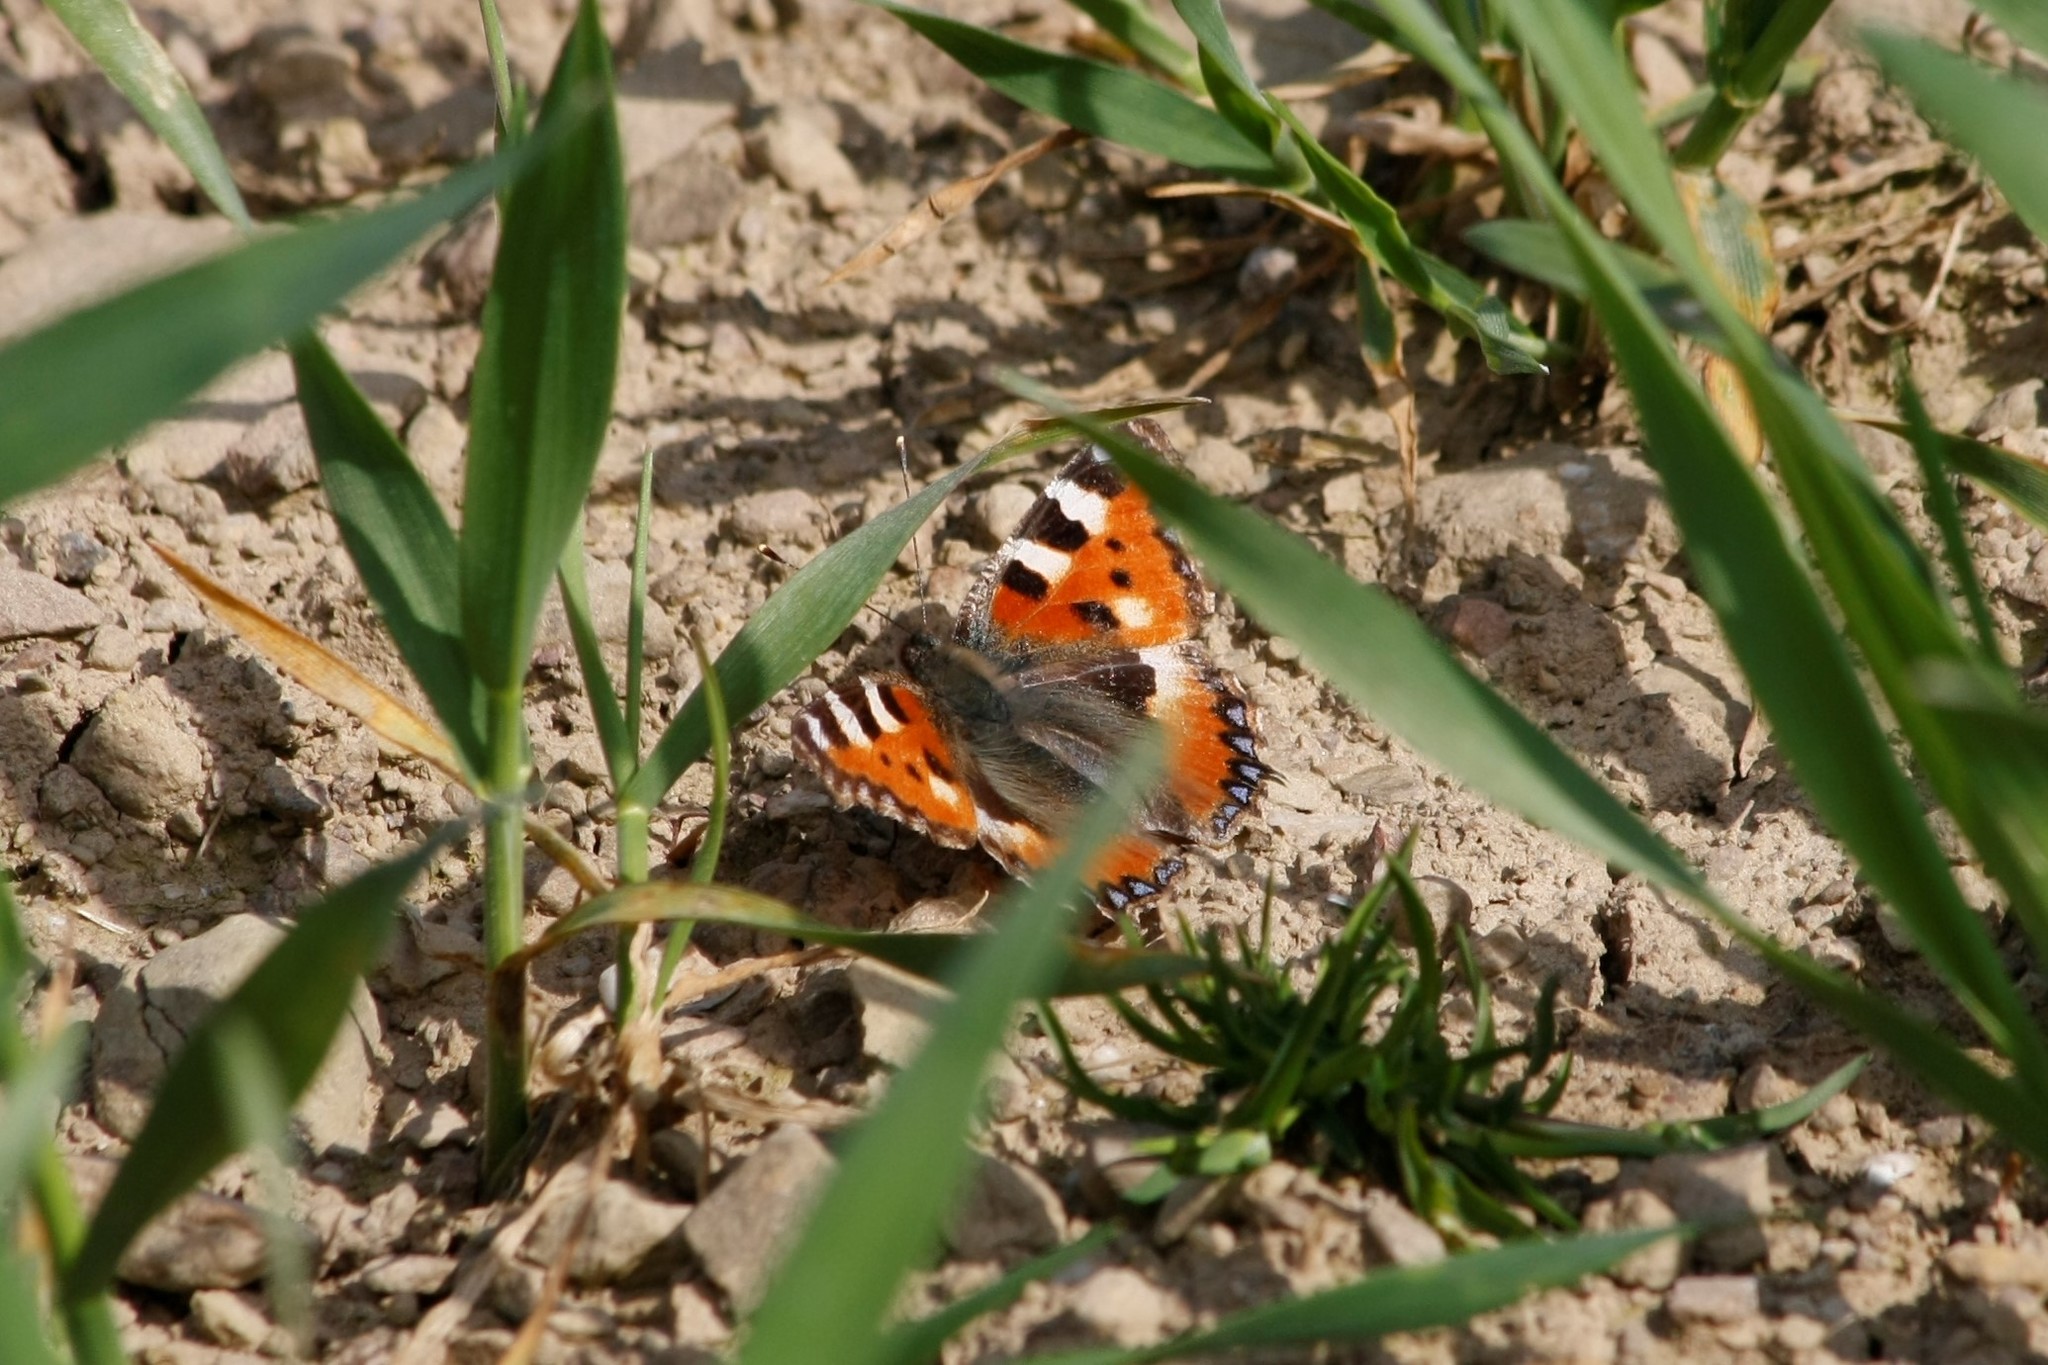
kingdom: Animalia
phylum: Arthropoda
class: Insecta
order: Lepidoptera
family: Nymphalidae
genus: Aglais
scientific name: Aglais urticae
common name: Small tortoiseshell
